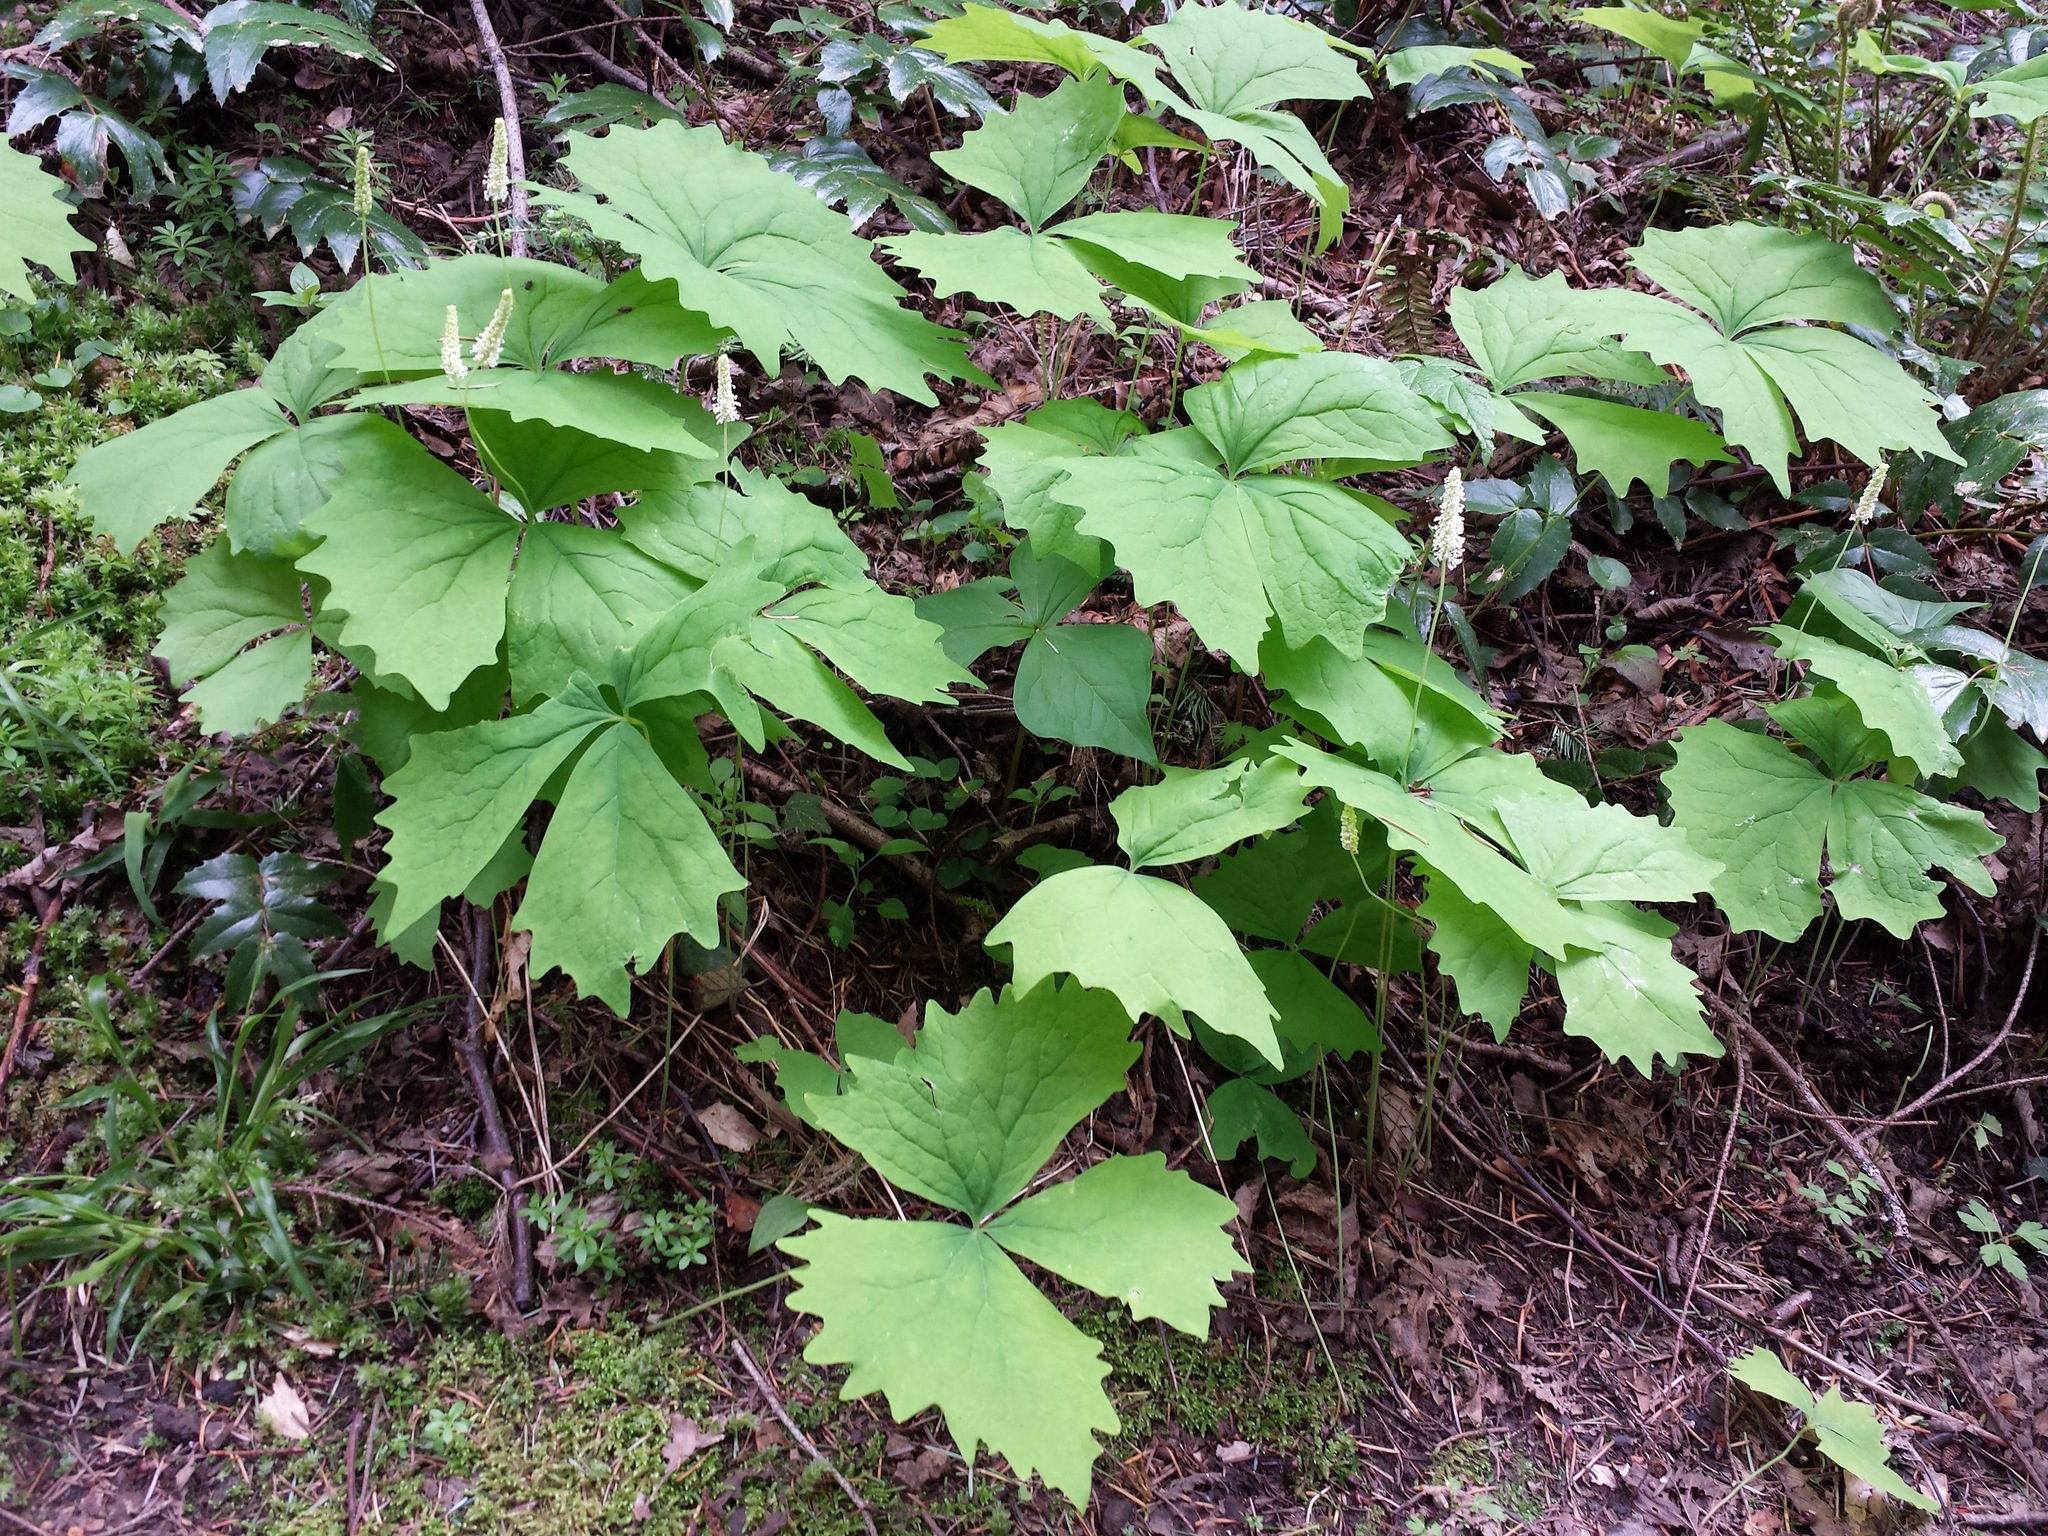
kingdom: Plantae
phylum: Tracheophyta
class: Magnoliopsida
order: Ranunculales
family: Berberidaceae
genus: Achlys
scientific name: Achlys triphylla
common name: Vanilla-leaf
